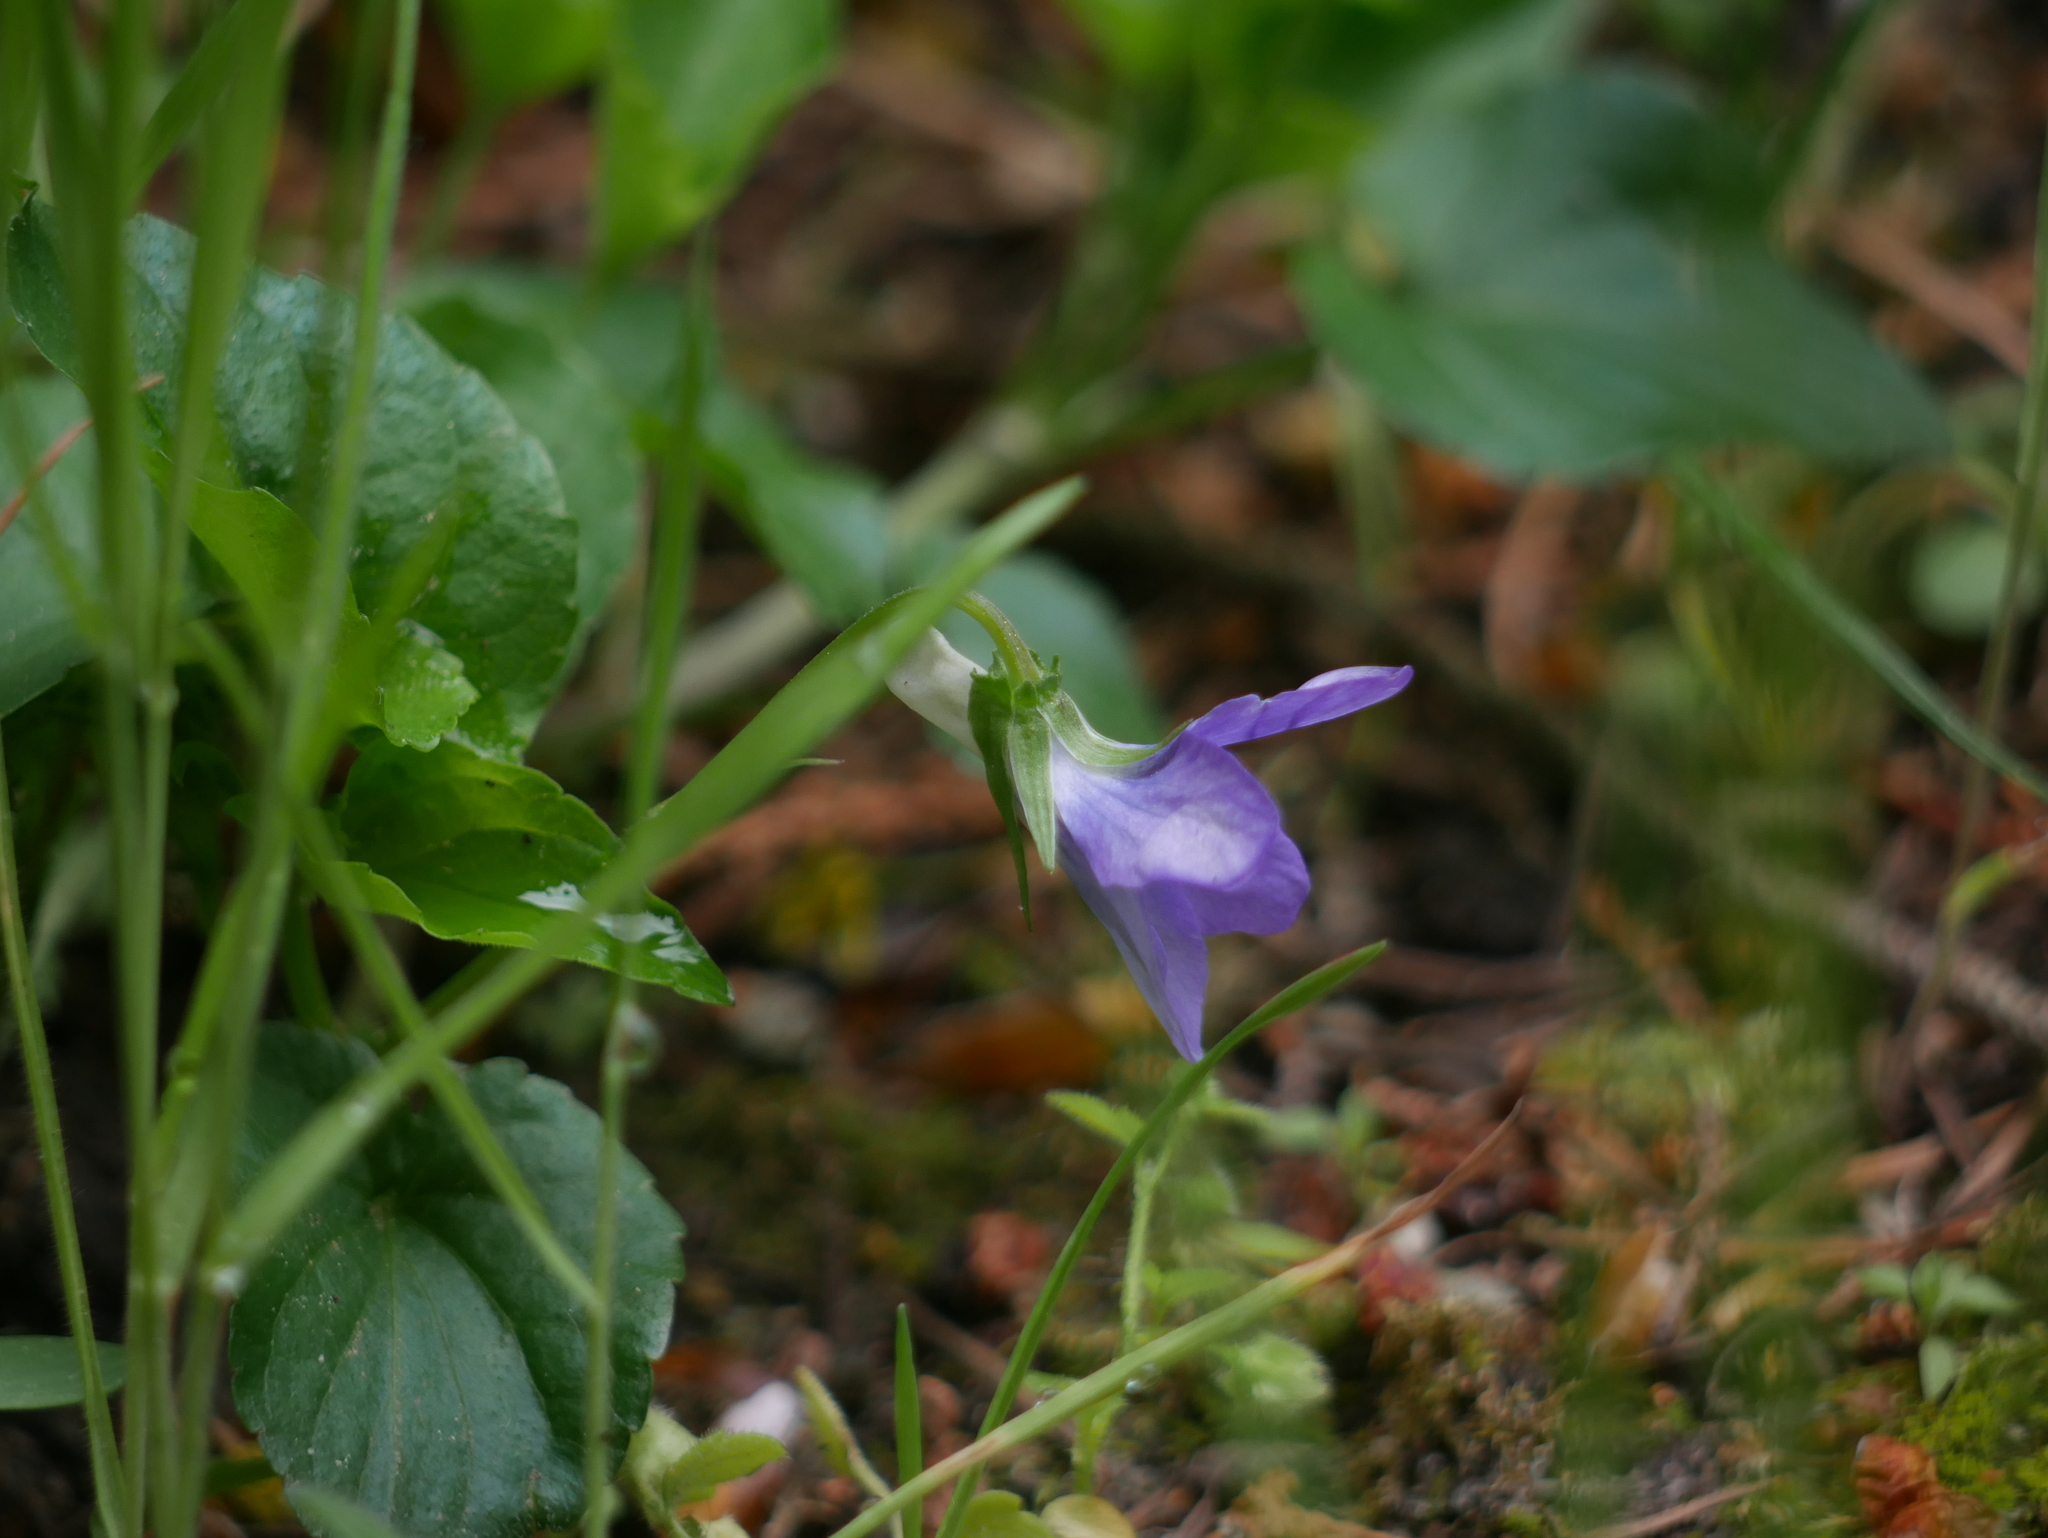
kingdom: Plantae
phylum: Tracheophyta
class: Magnoliopsida
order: Malpighiales
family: Violaceae
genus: Viola
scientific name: Viola riviniana
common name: Common dog-violet
